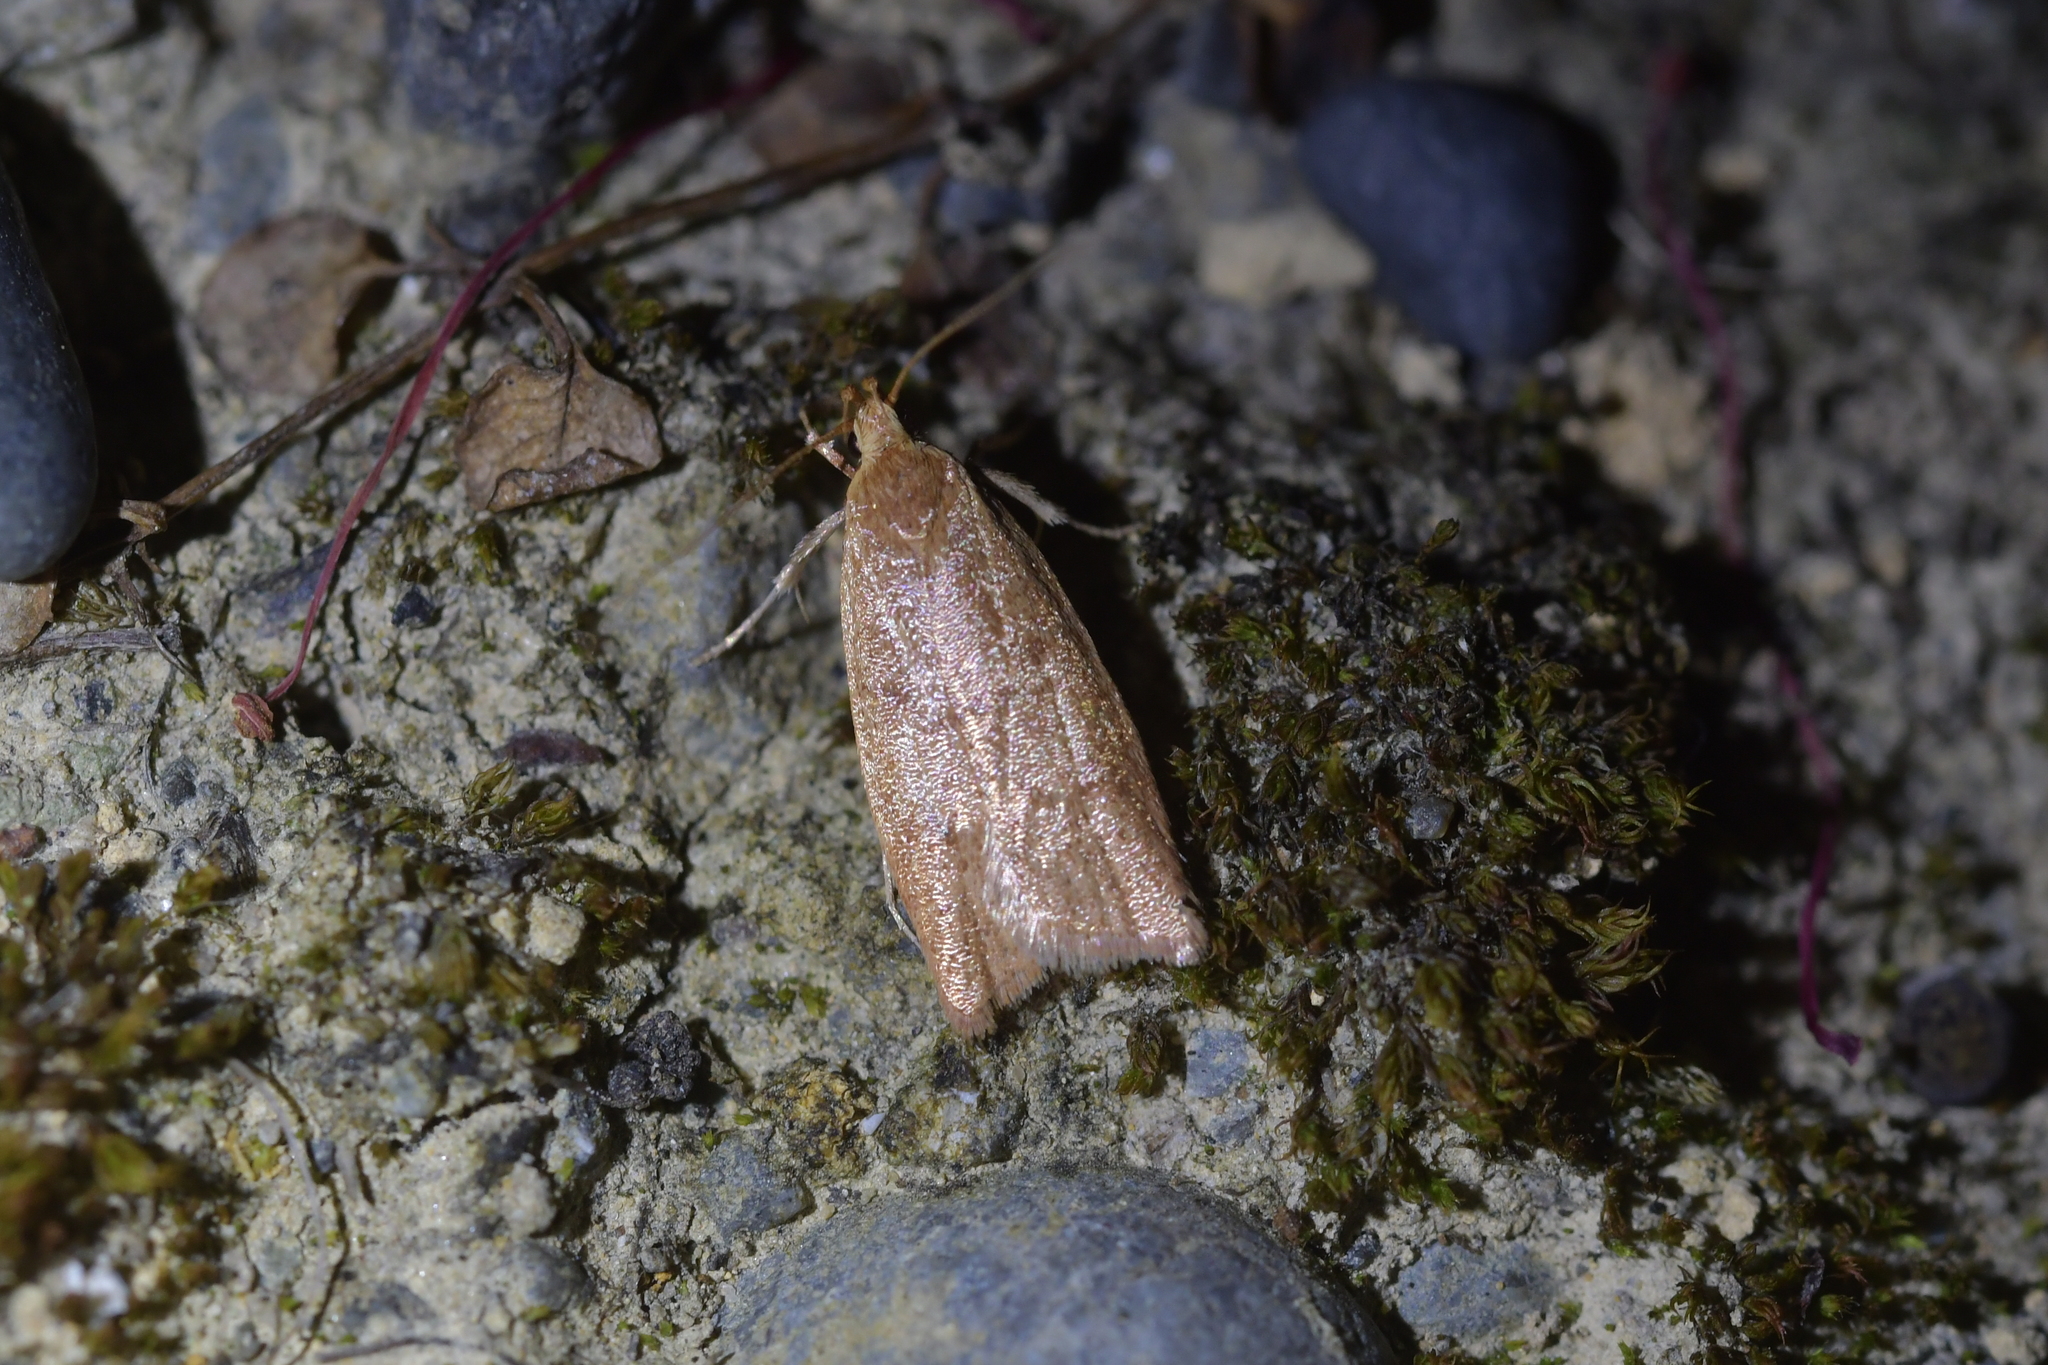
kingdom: Animalia
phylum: Arthropoda
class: Insecta
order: Lepidoptera
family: Oecophoridae
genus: Gymnobathra
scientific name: Gymnobathra sarcoxantha
